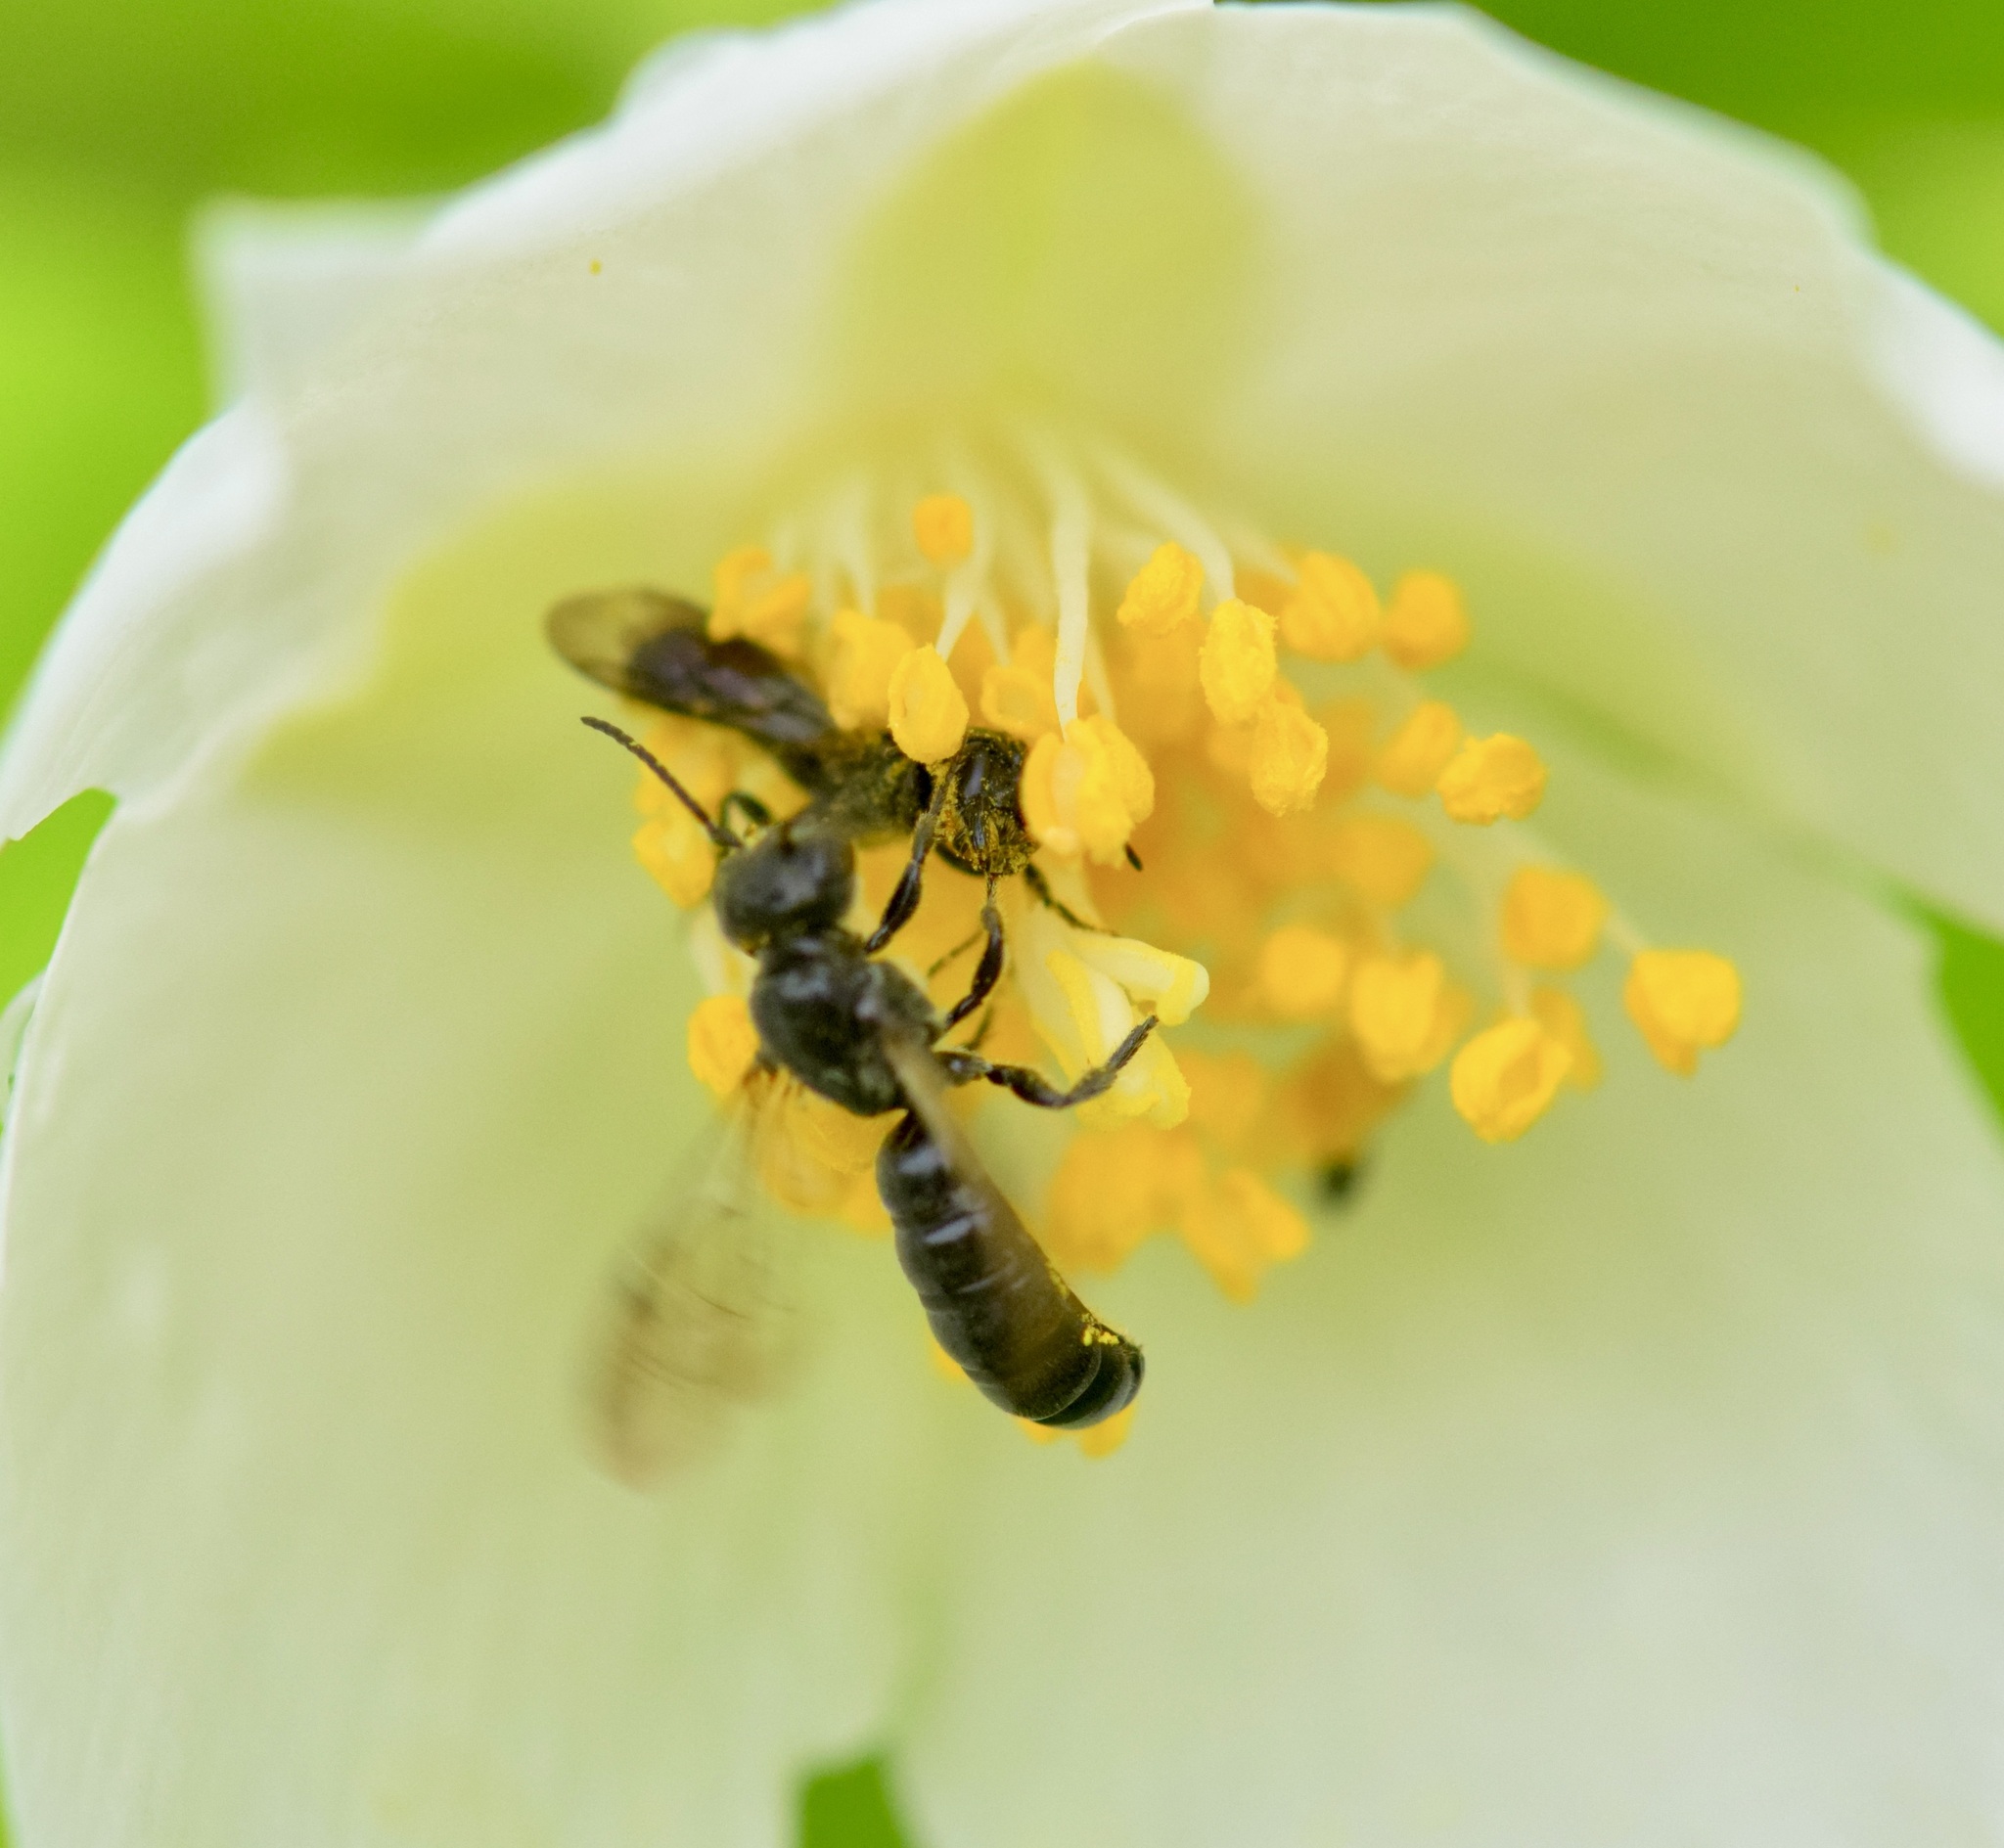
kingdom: Animalia
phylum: Arthropoda
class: Insecta
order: Hymenoptera
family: Megachilidae
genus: Chelostoma
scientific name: Chelostoma philadelphi
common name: Mock-orange scissor bee
